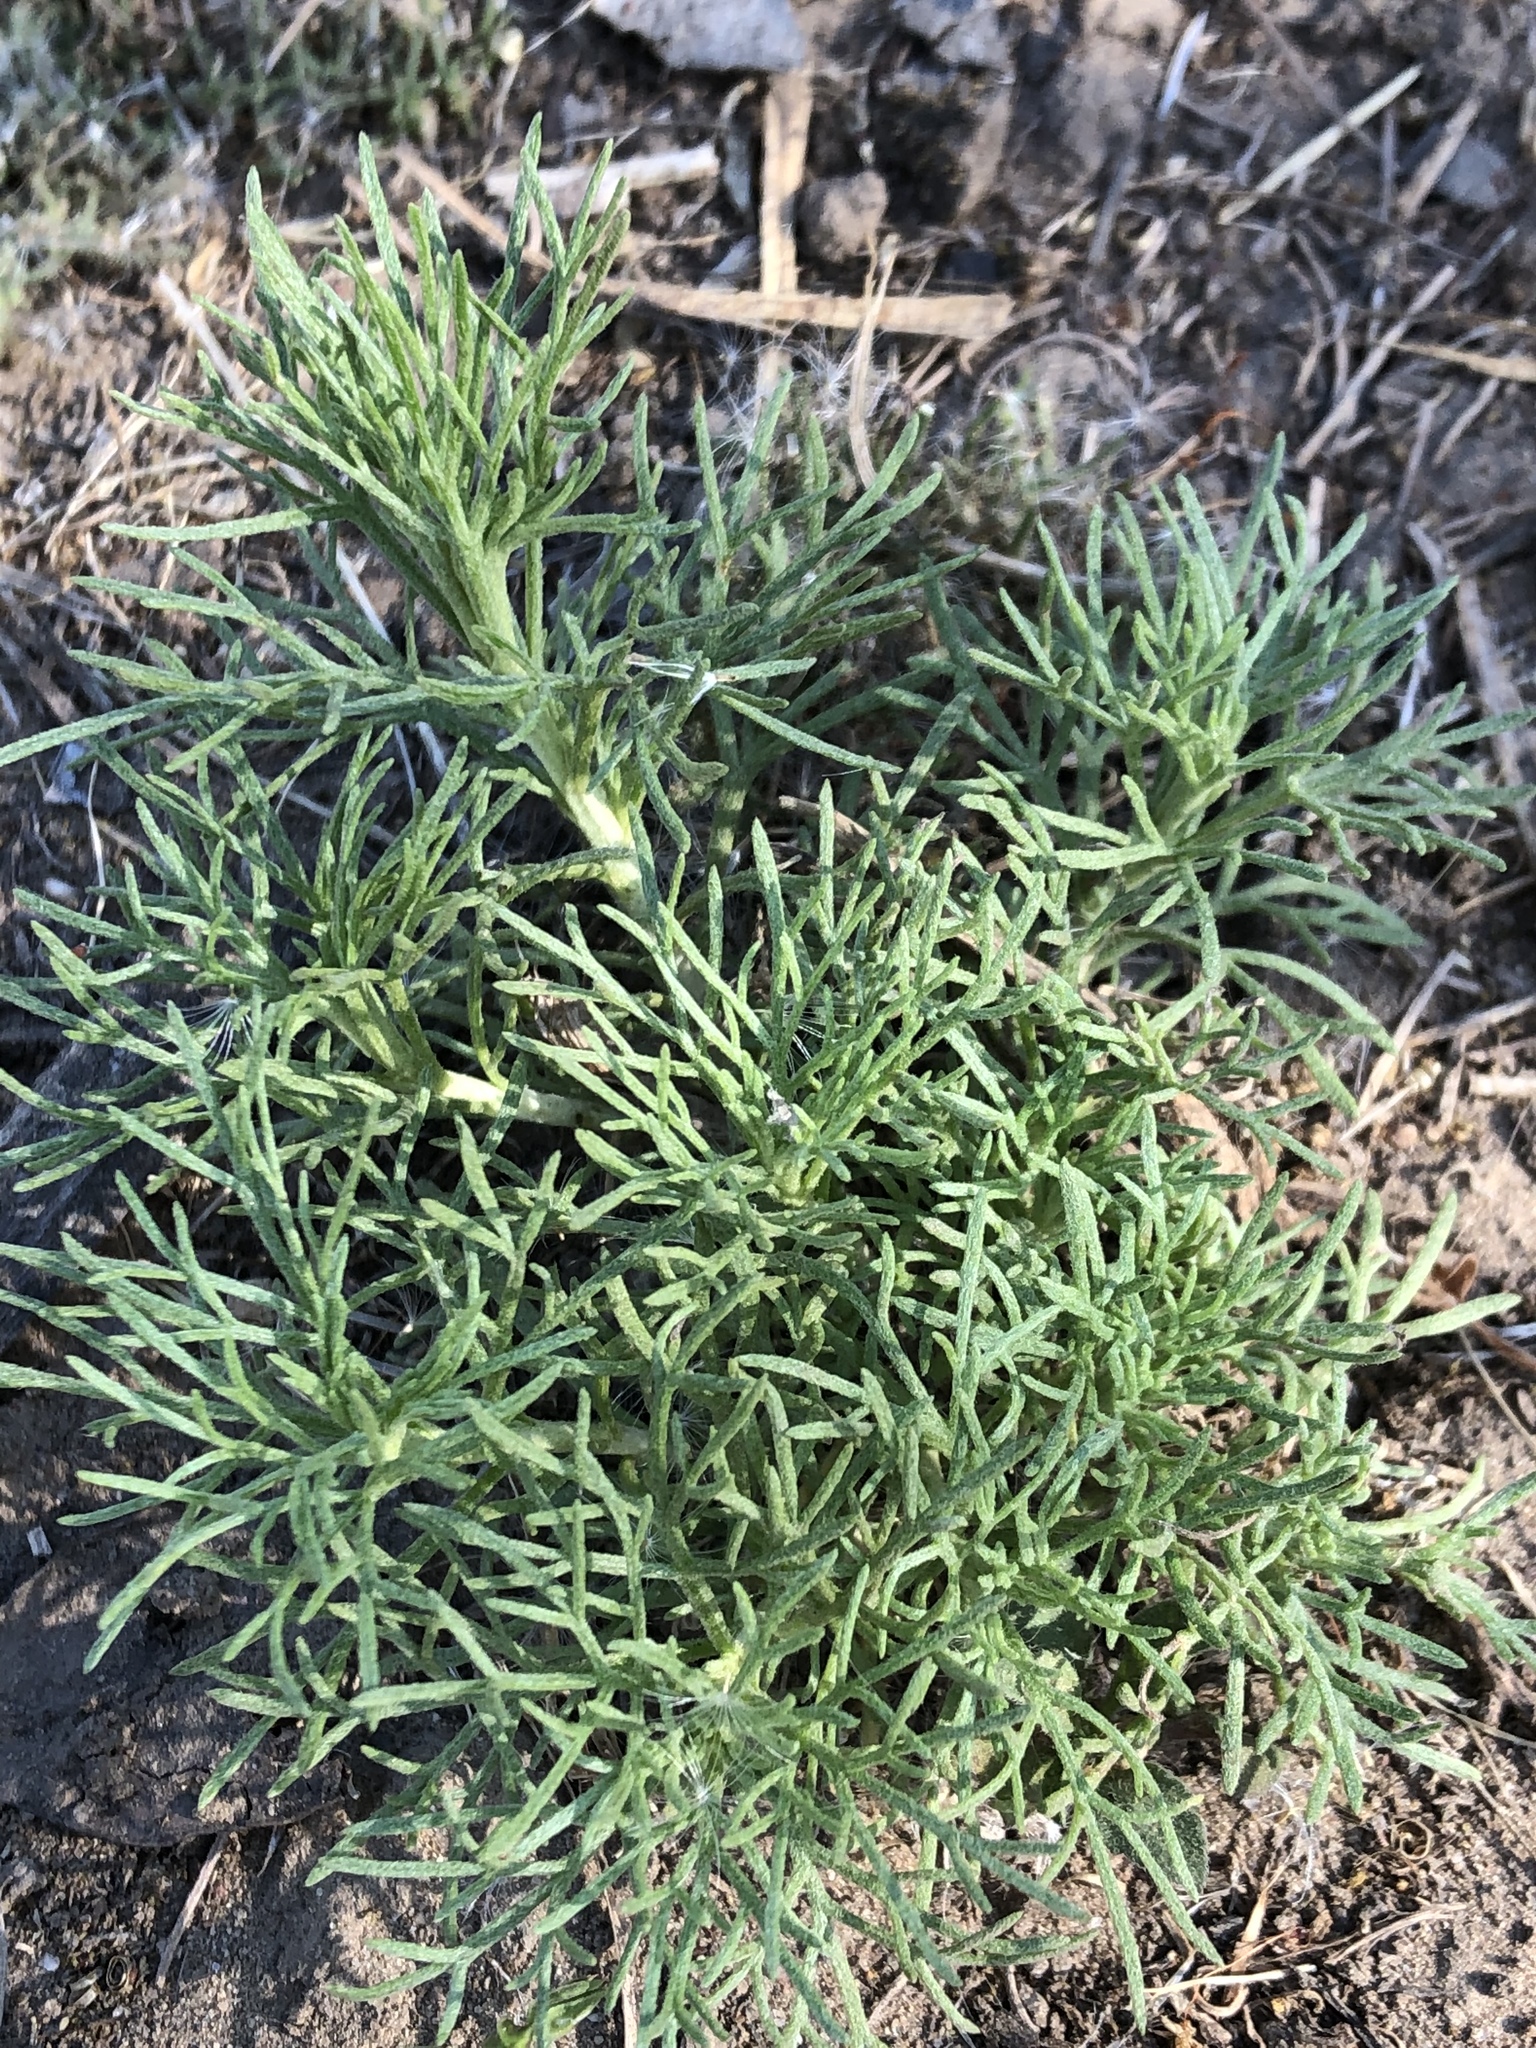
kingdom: Plantae
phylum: Tracheophyta
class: Magnoliopsida
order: Asterales
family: Asteraceae
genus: Artemisia
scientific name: Artemisia californica
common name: California sagebrush
